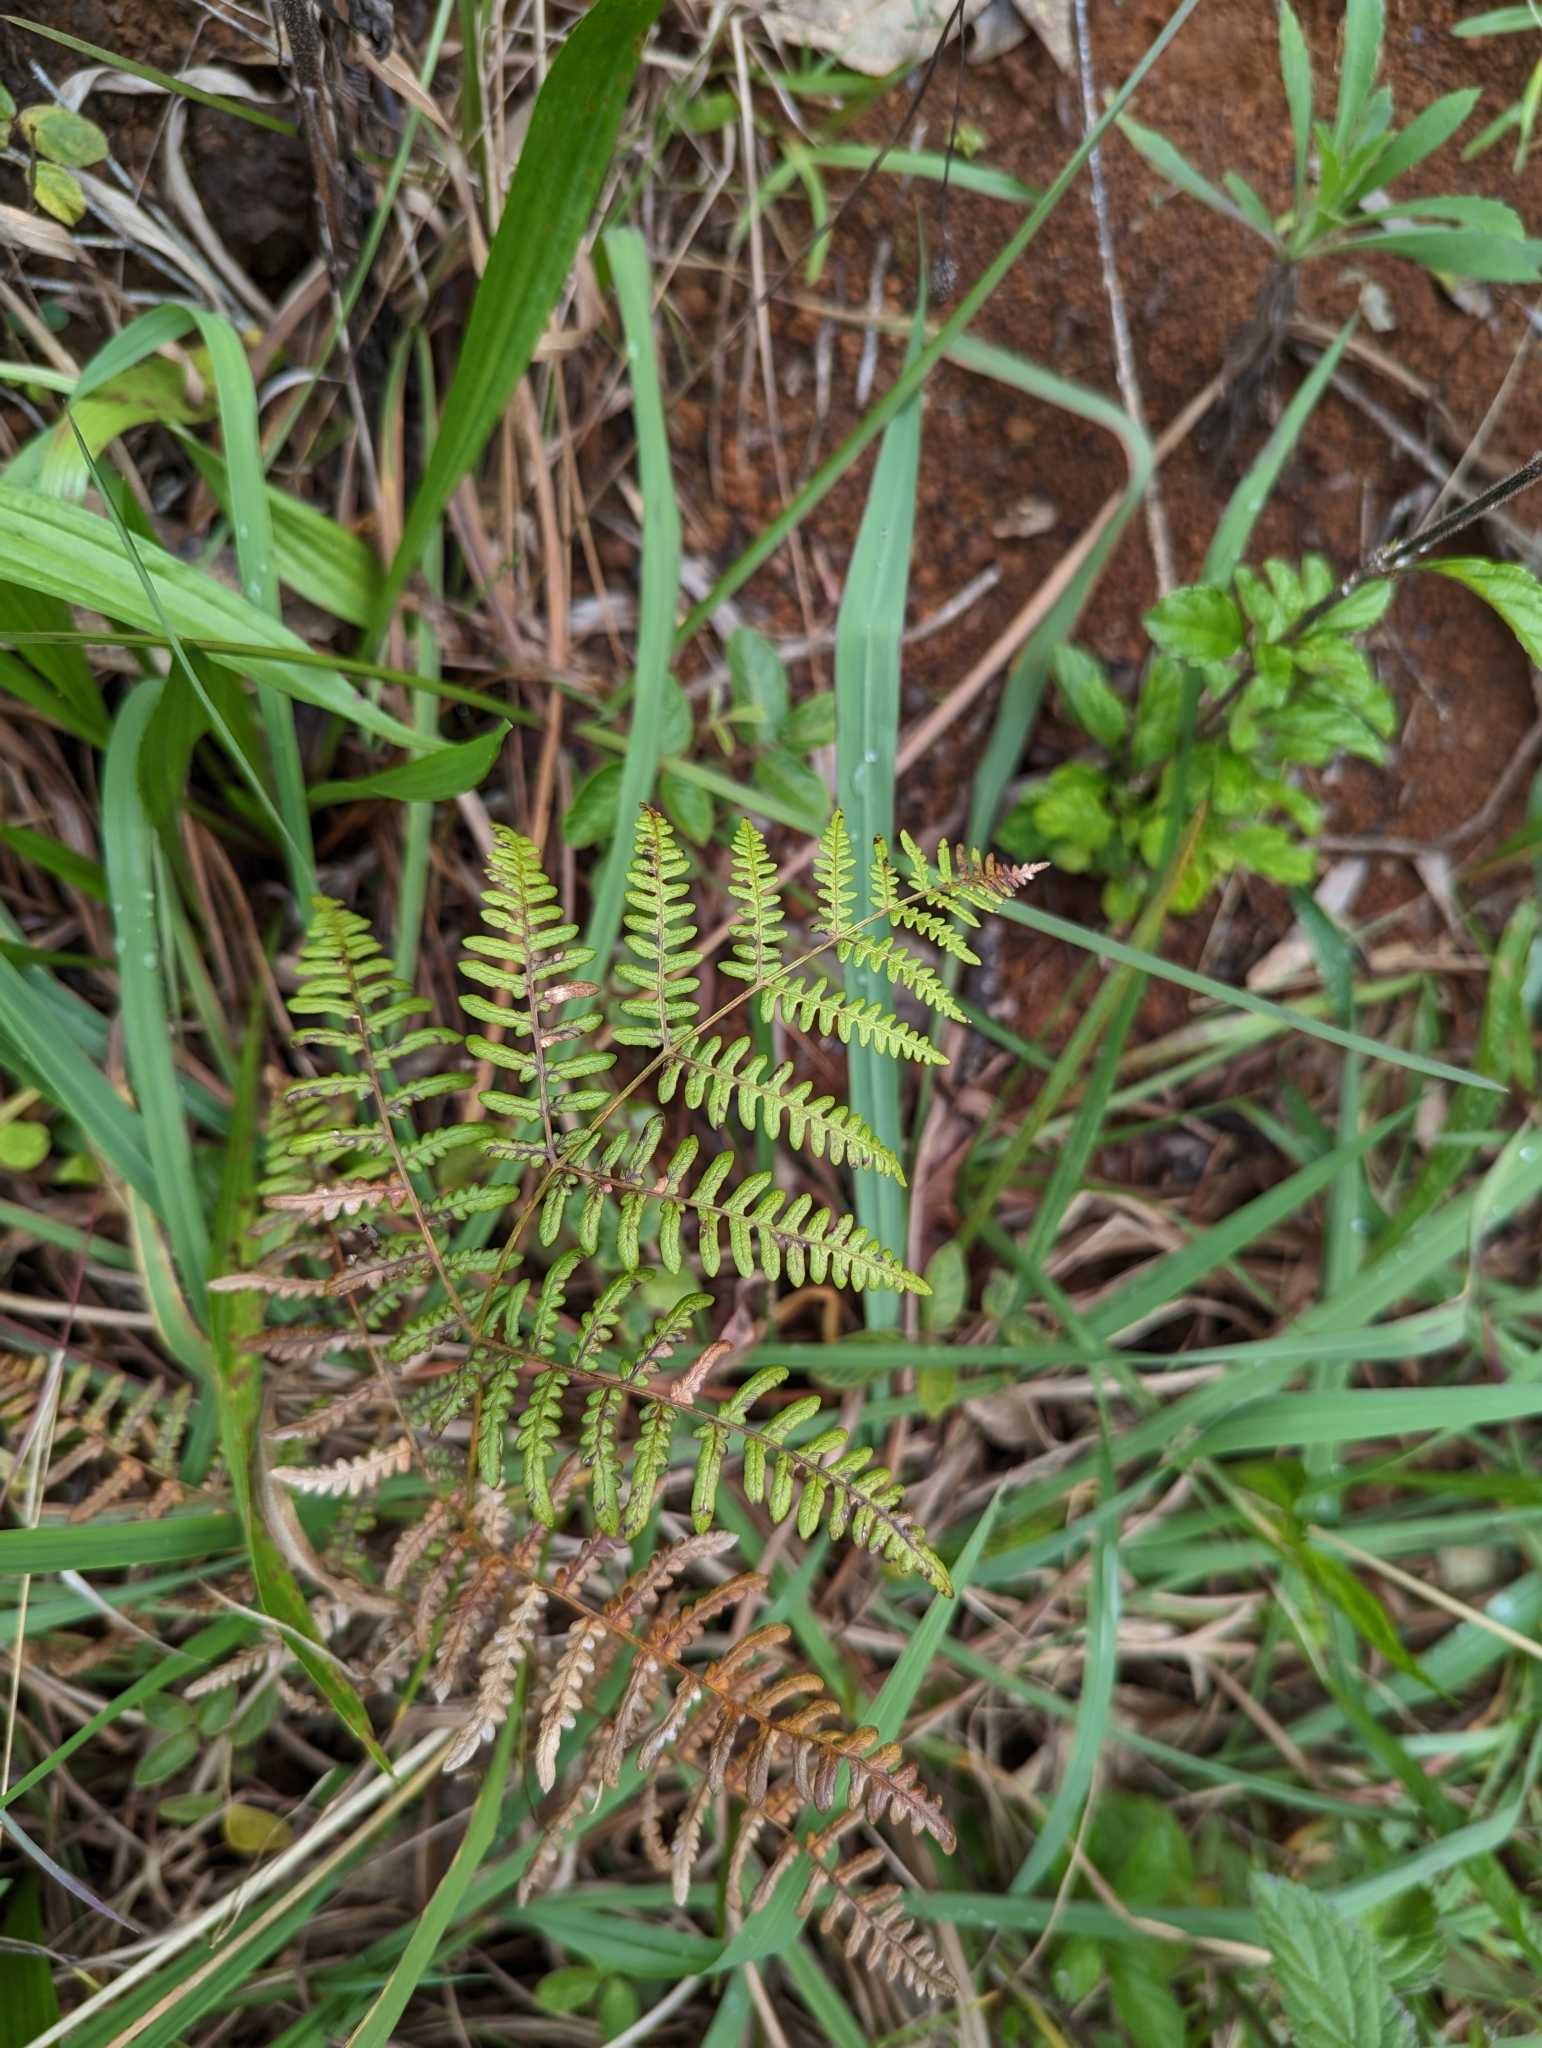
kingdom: Plantae
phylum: Tracheophyta
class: Polypodiopsida
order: Polypodiales
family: Dennstaedtiaceae
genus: Pteridium
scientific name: Pteridium aquilinum
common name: Bracken
